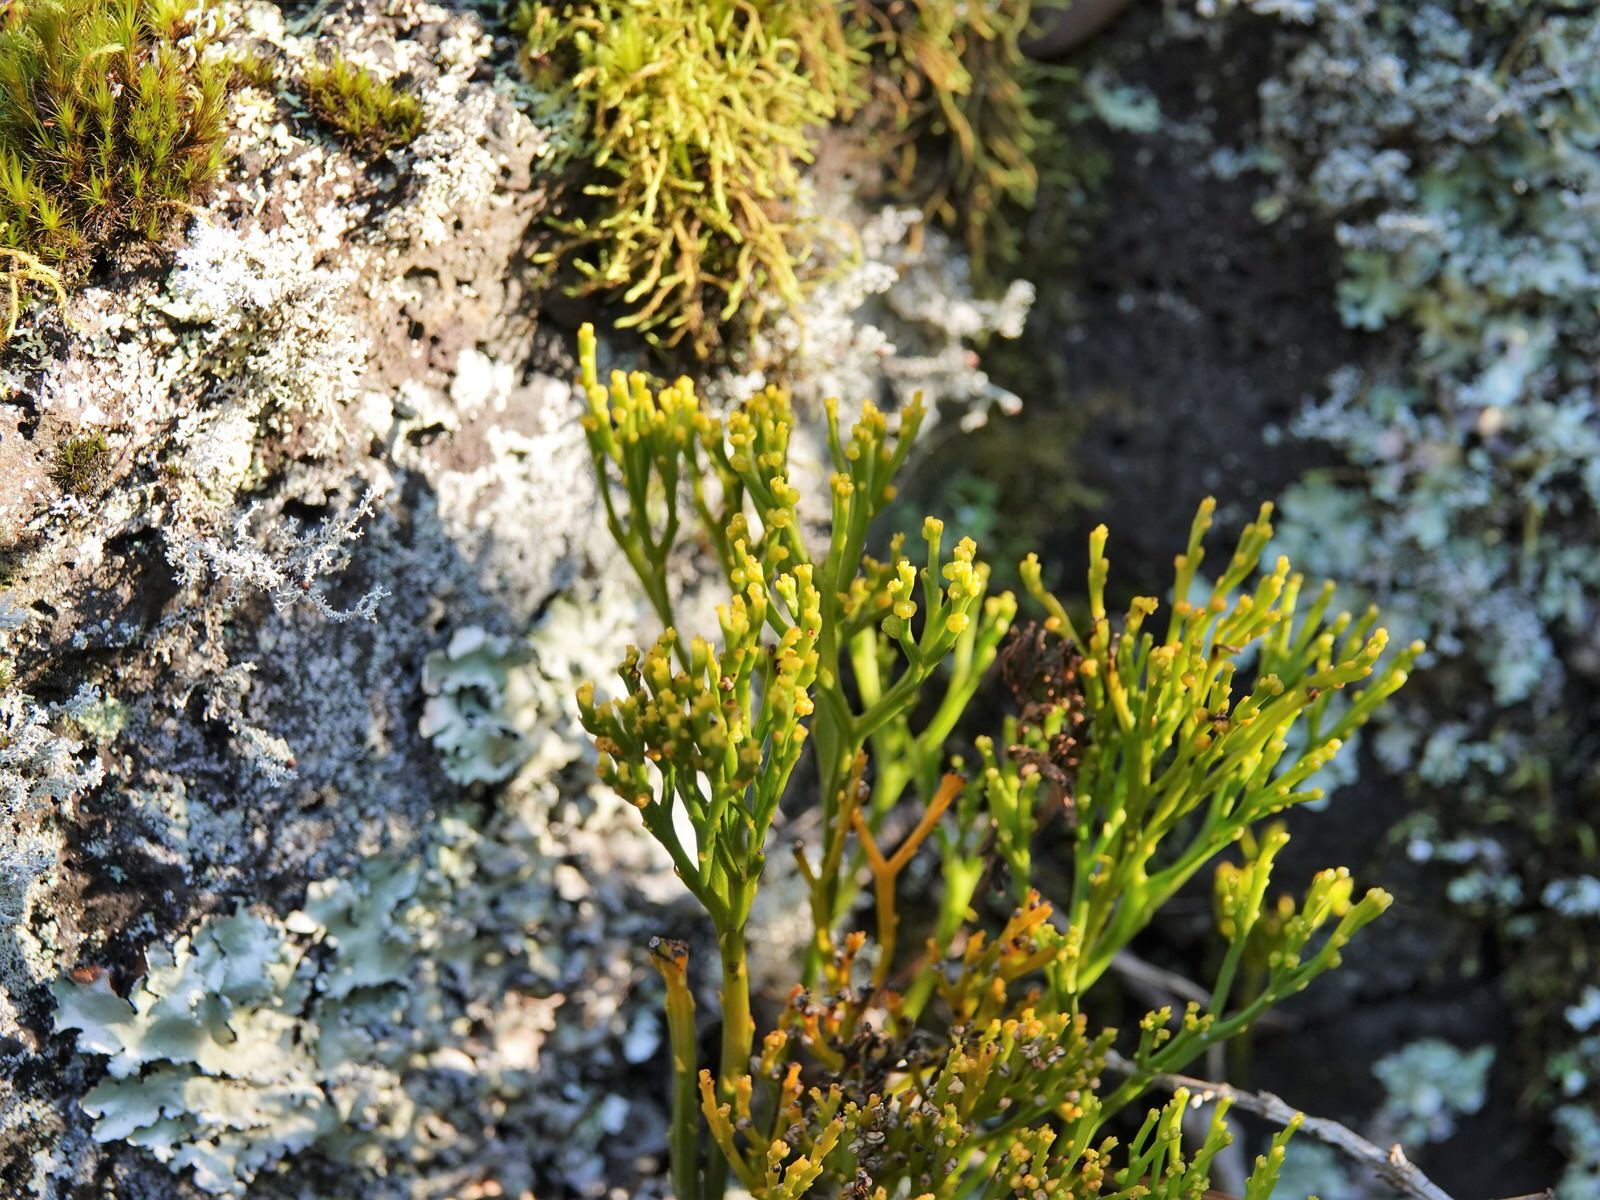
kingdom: Plantae
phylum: Tracheophyta
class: Polypodiopsida
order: Psilotales
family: Psilotaceae
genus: Psilotum
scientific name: Psilotum nudum
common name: Skeleton fork fern
